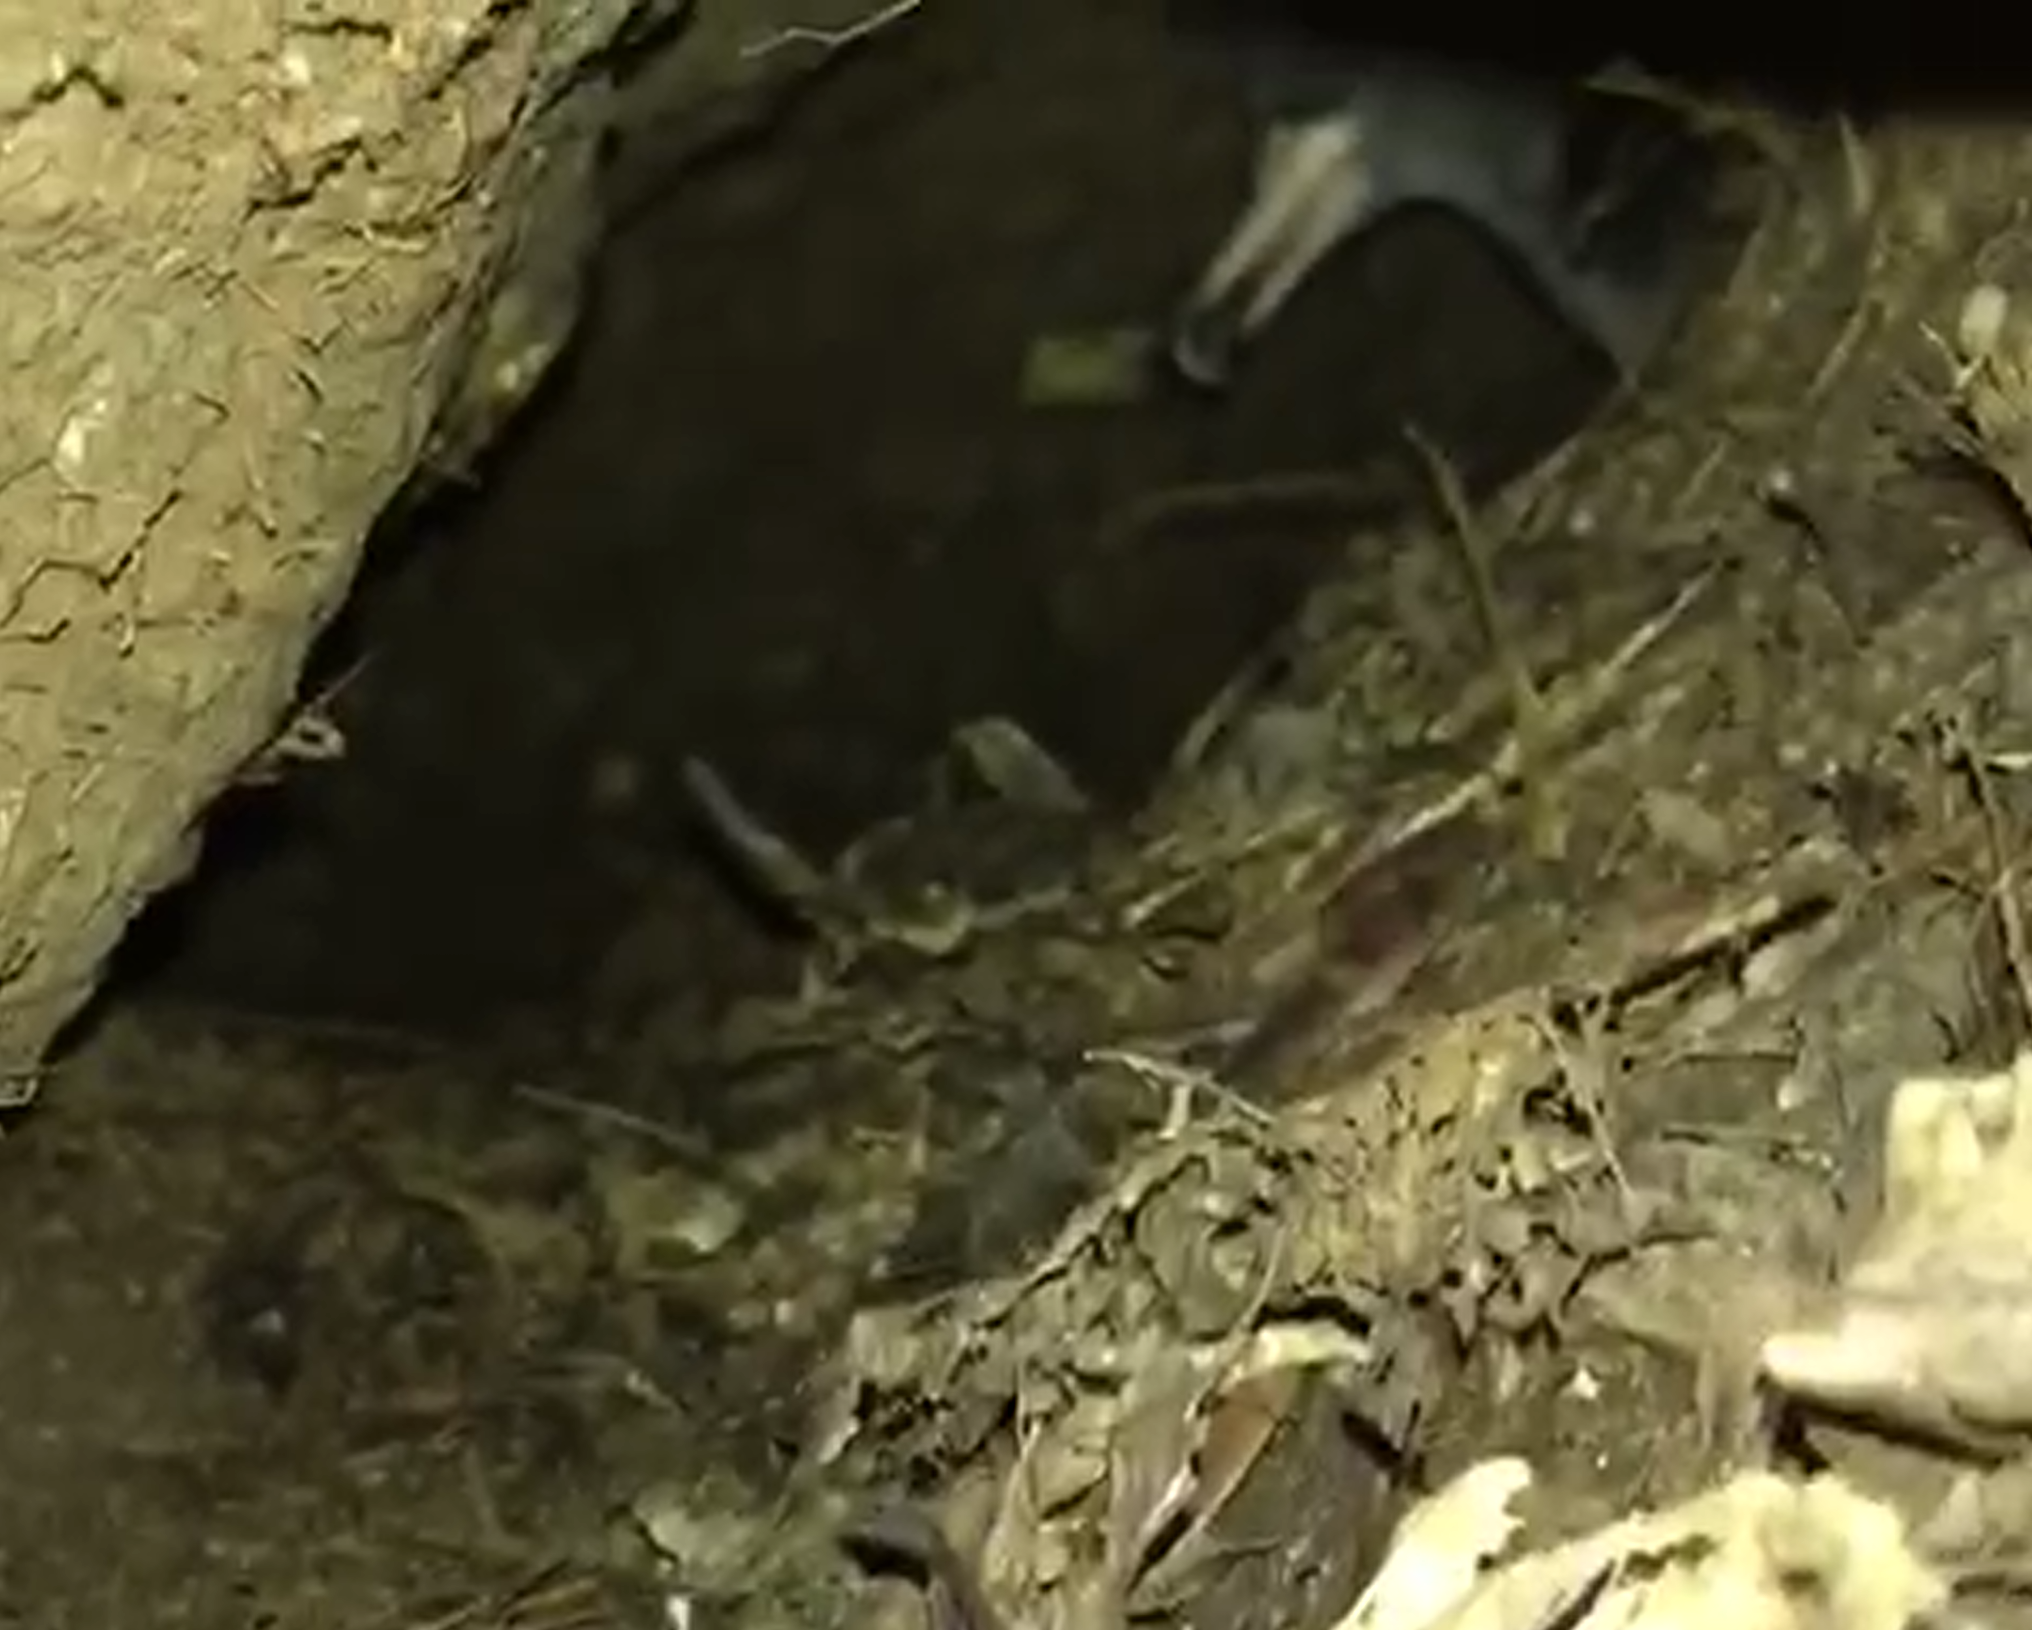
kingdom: Animalia
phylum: Chordata
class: Aves
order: Procellariiformes
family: Procellariidae
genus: Puffinus
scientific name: Puffinus carneipes
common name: Flesh-footed shearwater
